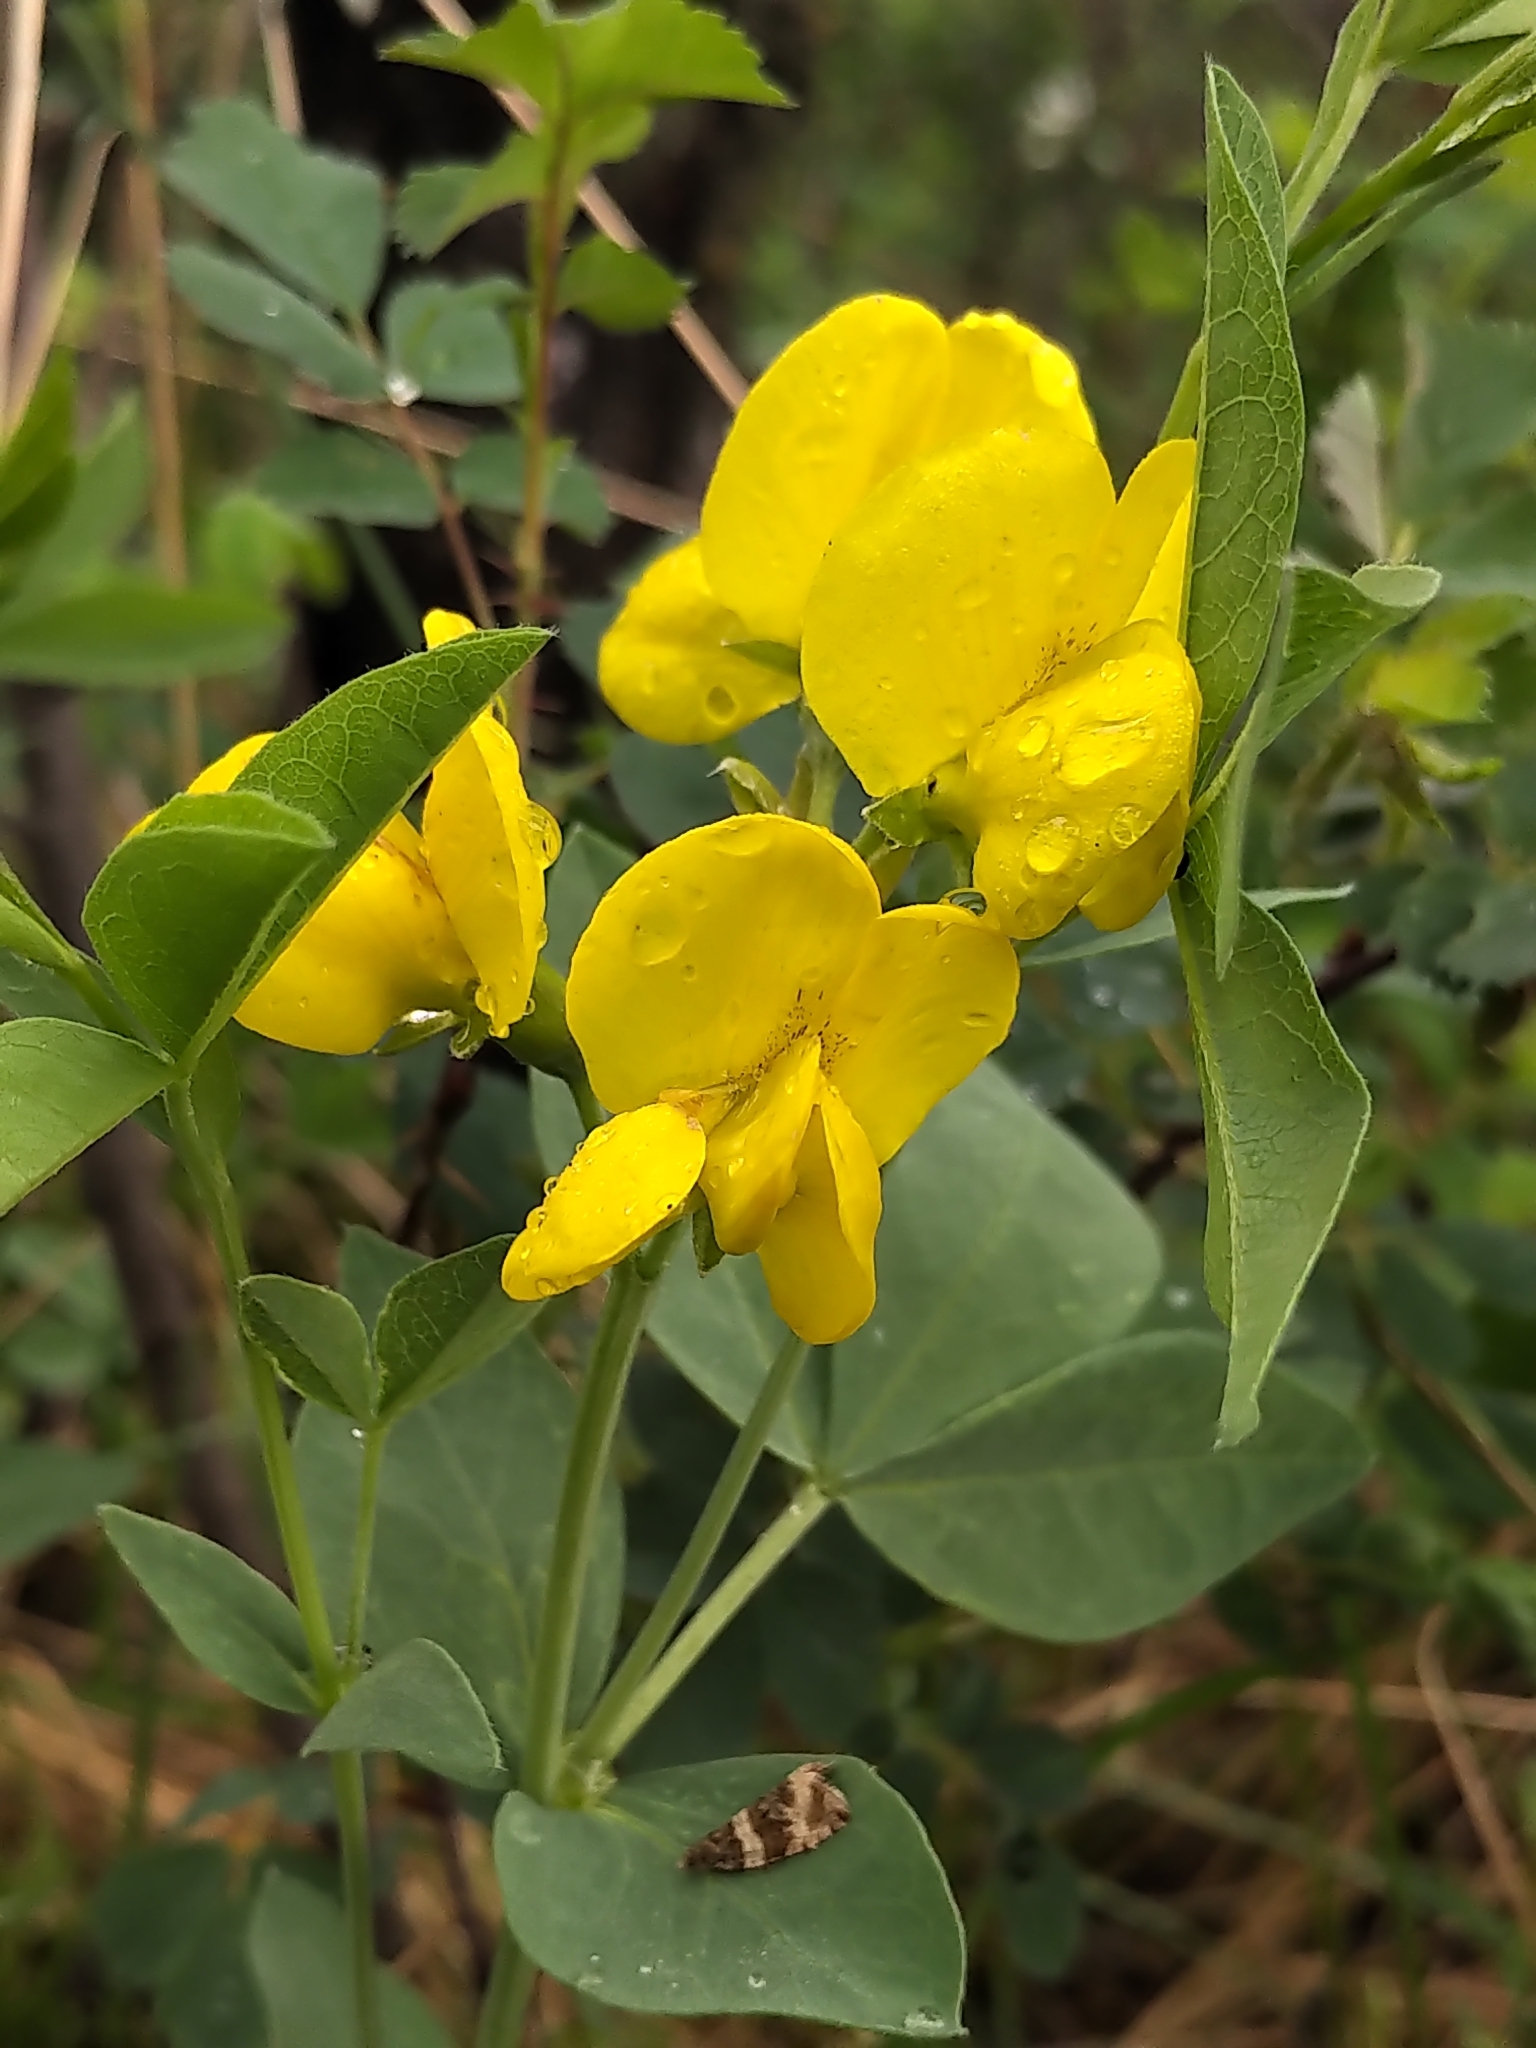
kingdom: Plantae
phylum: Tracheophyta
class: Magnoliopsida
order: Fabales
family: Fabaceae
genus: Thermopsis
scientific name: Thermopsis rhombifolia
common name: Circle-pod-pea
